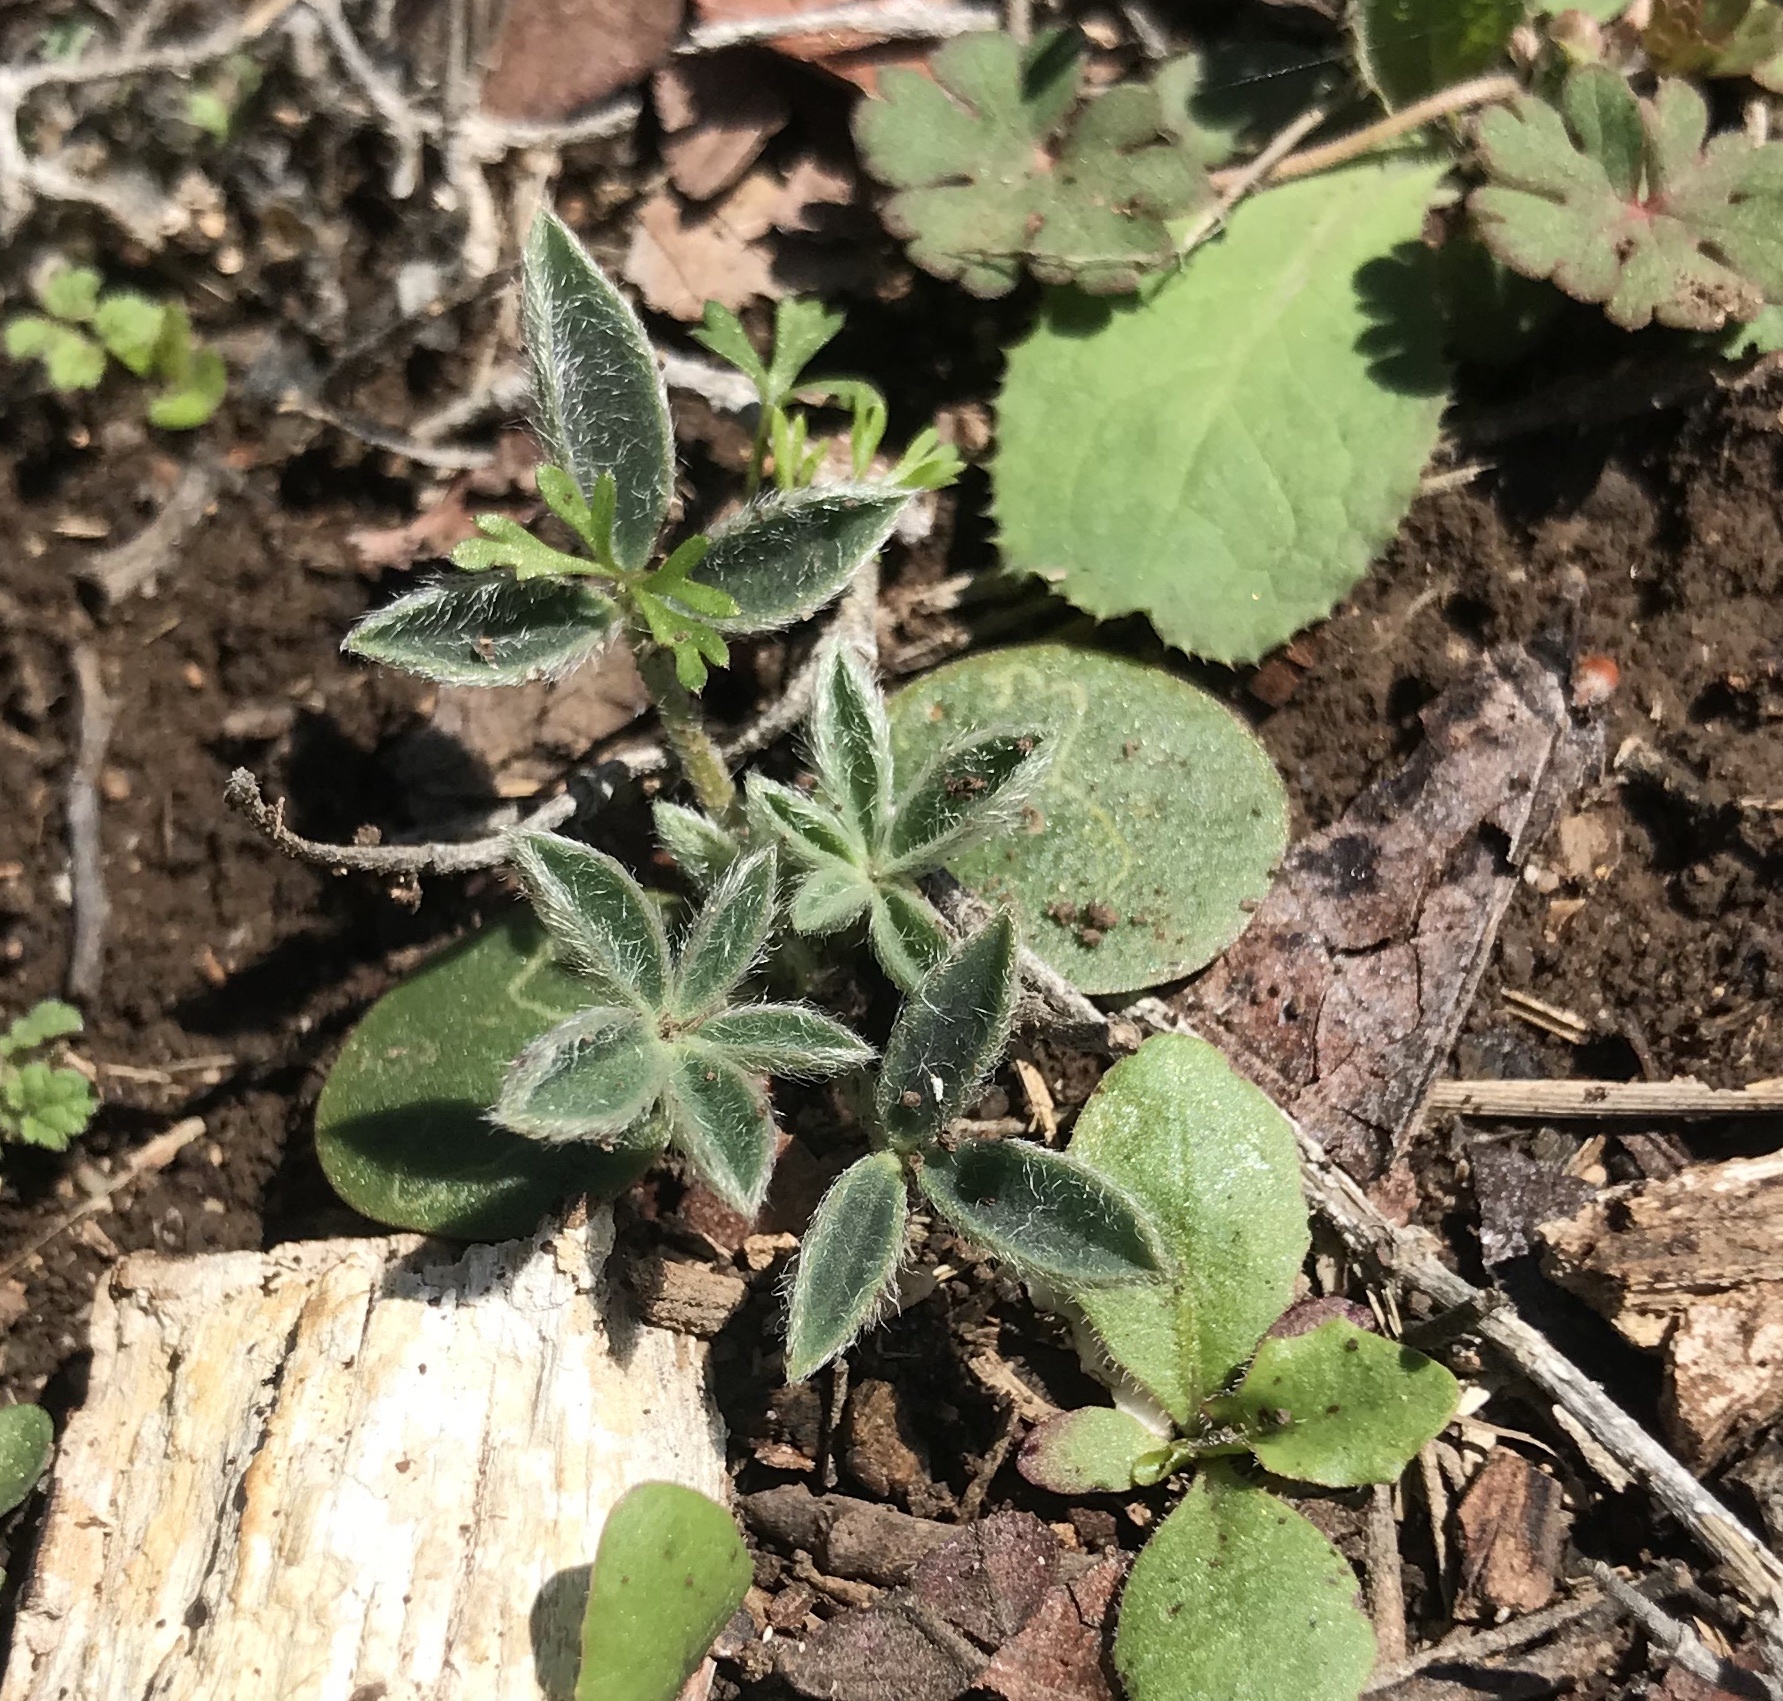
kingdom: Plantae
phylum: Tracheophyta
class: Magnoliopsida
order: Fabales
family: Fabaceae
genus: Lupinus
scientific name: Lupinus texensis
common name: Texas bluebonnet
